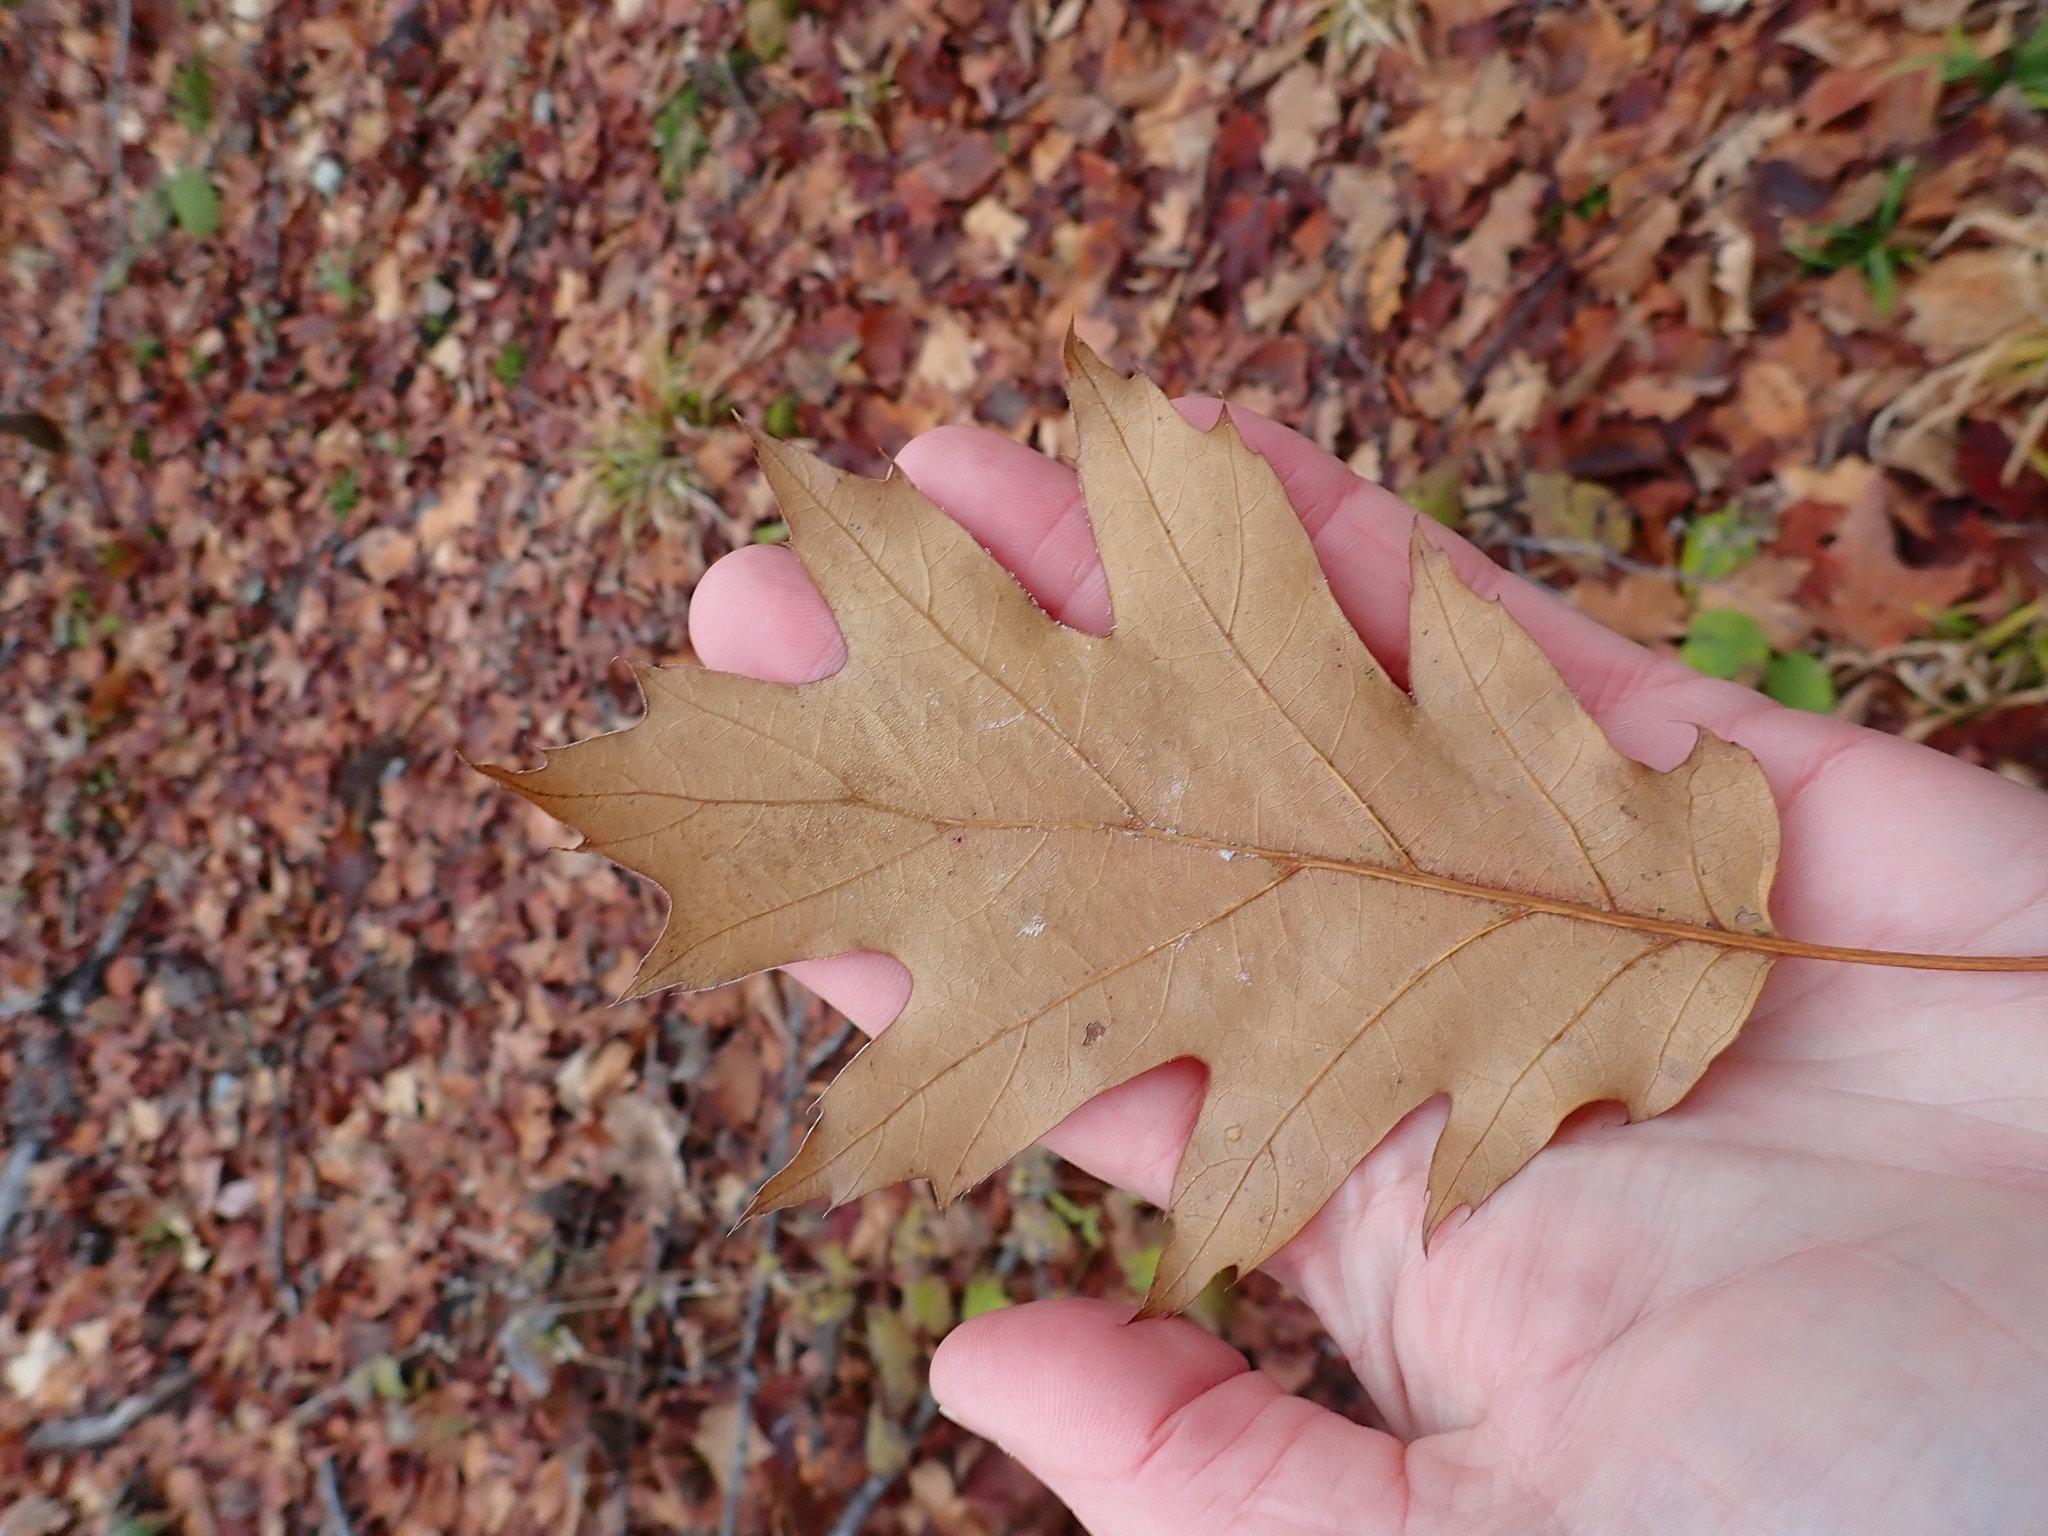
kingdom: Plantae
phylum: Tracheophyta
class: Magnoliopsida
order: Fagales
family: Fagaceae
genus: Quercus
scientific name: Quercus rubra
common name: Red oak
